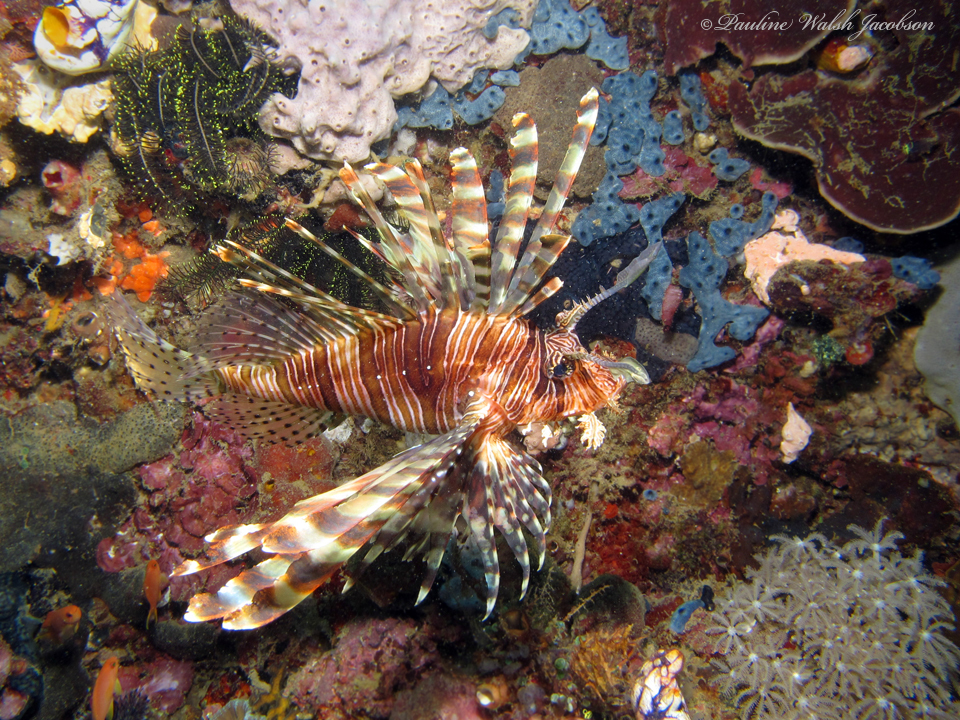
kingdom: Animalia
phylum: Chordata
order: Scorpaeniformes
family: Scorpaenidae
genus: Pterois
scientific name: Pterois volitans
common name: Lionfish
